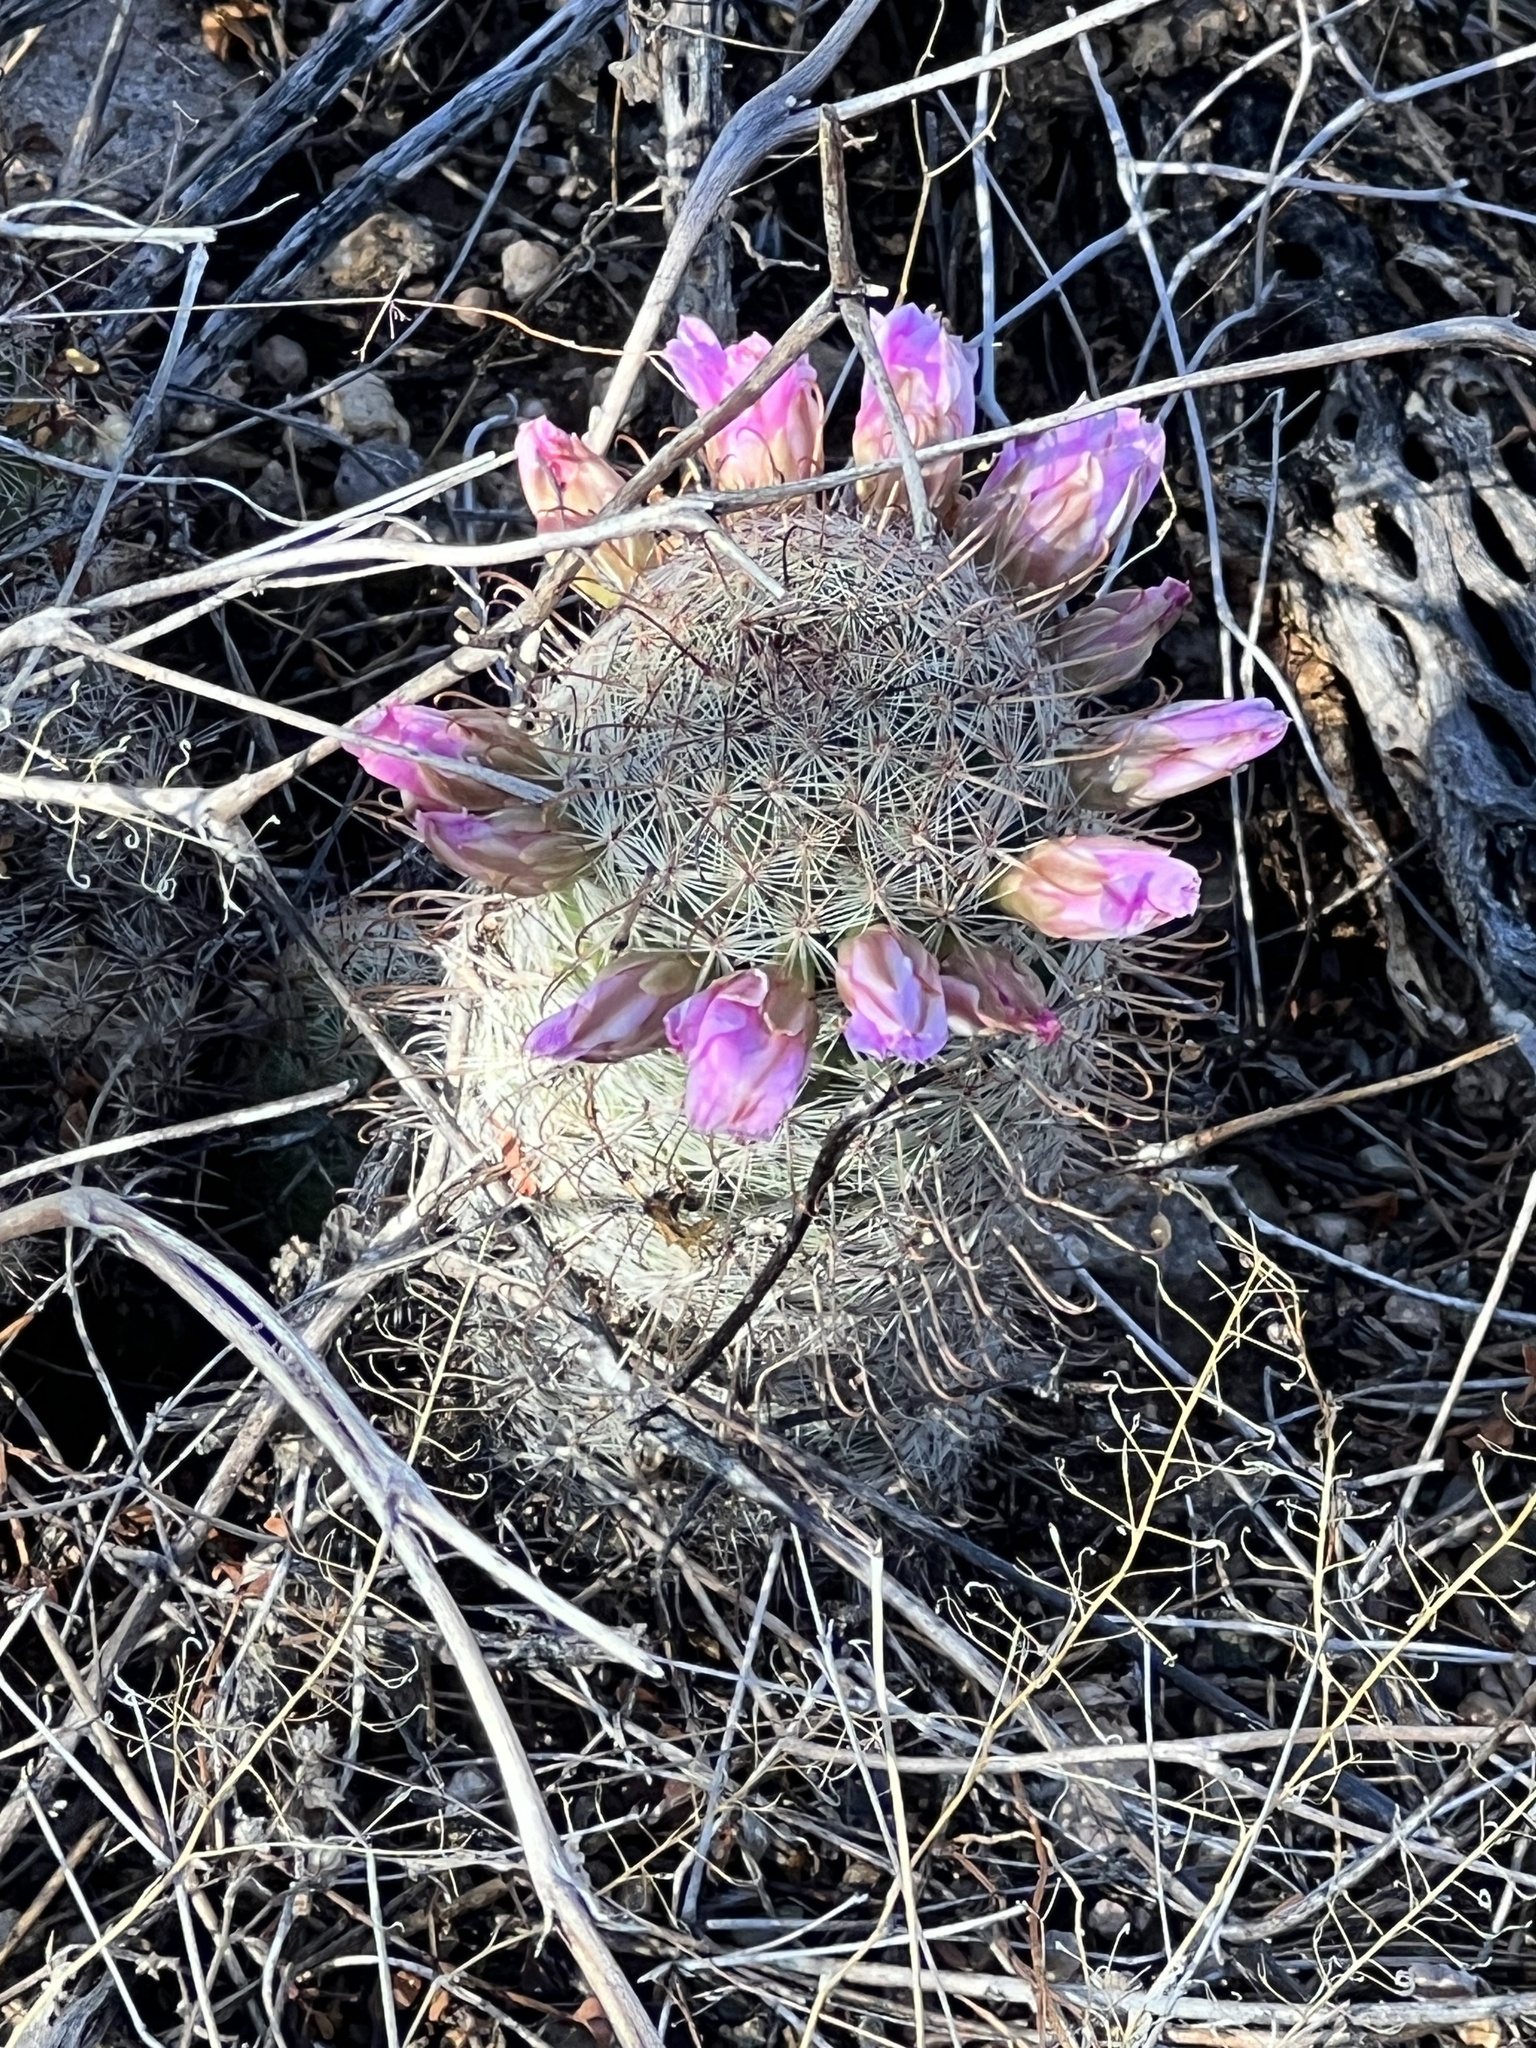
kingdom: Plantae
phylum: Tracheophyta
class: Magnoliopsida
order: Caryophyllales
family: Cactaceae
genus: Cochemiea
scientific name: Cochemiea grahamii
